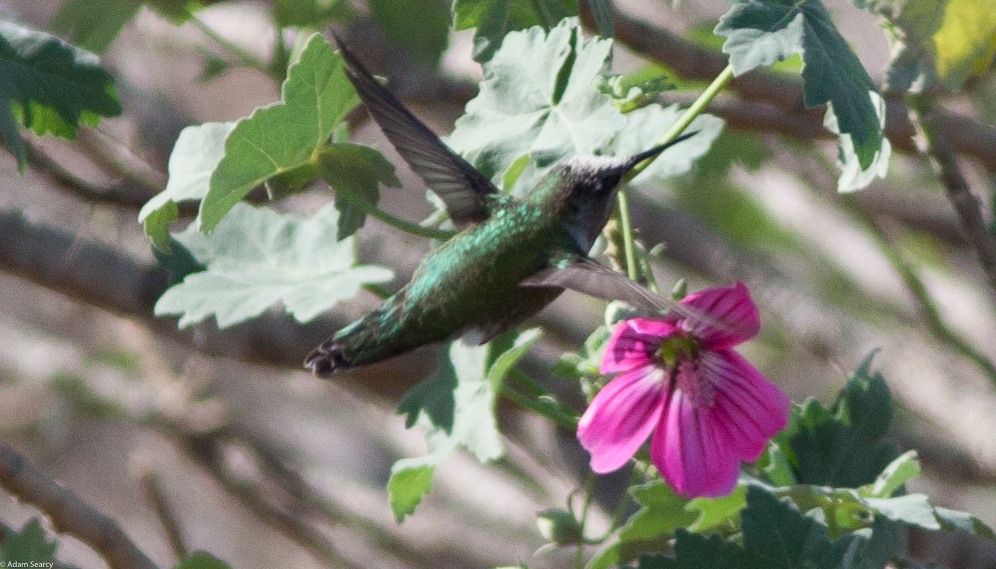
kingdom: Animalia
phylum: Chordata
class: Aves
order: Apodiformes
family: Trochilidae
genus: Calypte
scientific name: Calypte anna
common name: Anna's hummingbird
